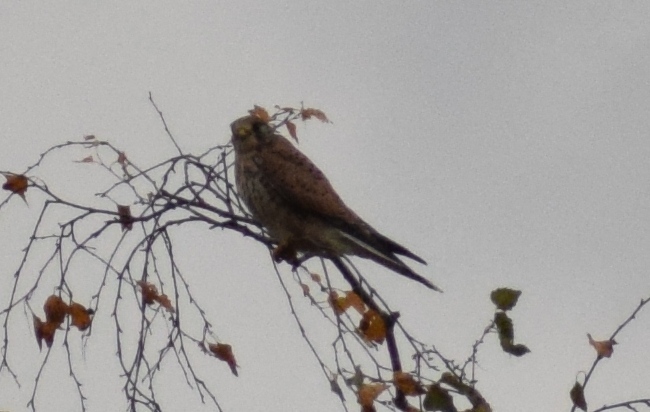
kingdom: Animalia
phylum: Chordata
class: Aves
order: Falconiformes
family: Falconidae
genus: Falco
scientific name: Falco tinnunculus
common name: Common kestrel
